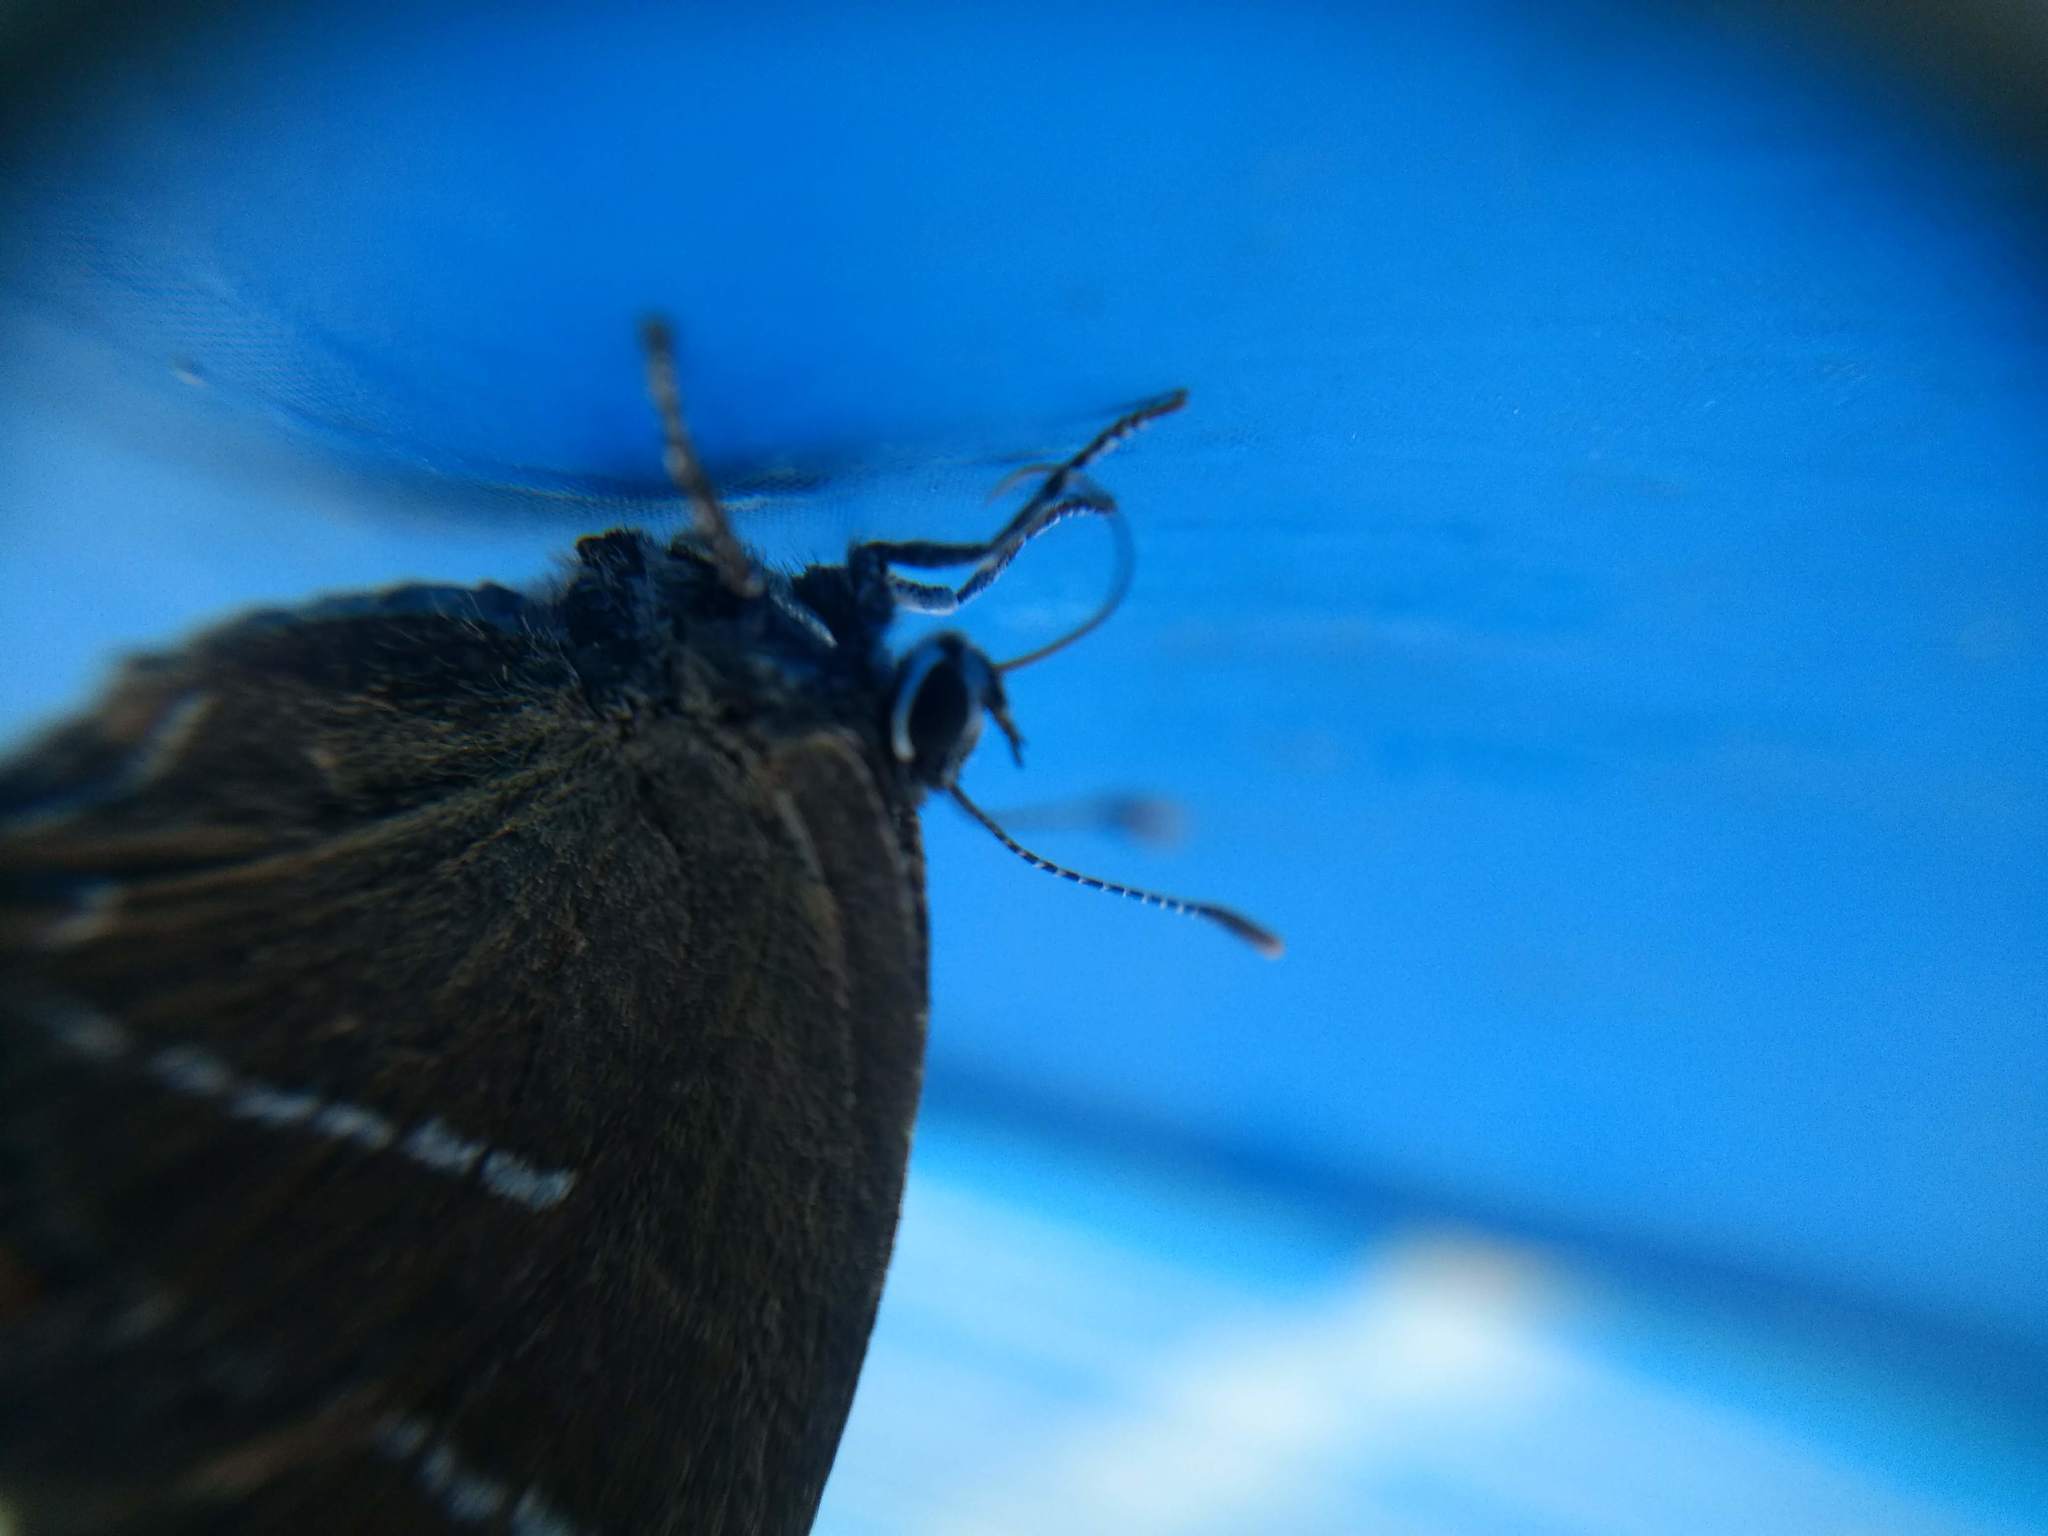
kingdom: Animalia
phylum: Arthropoda
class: Insecta
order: Lepidoptera
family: Lycaenidae
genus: Satyrium
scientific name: Satyrium w-album
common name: White-letter hairstreak
